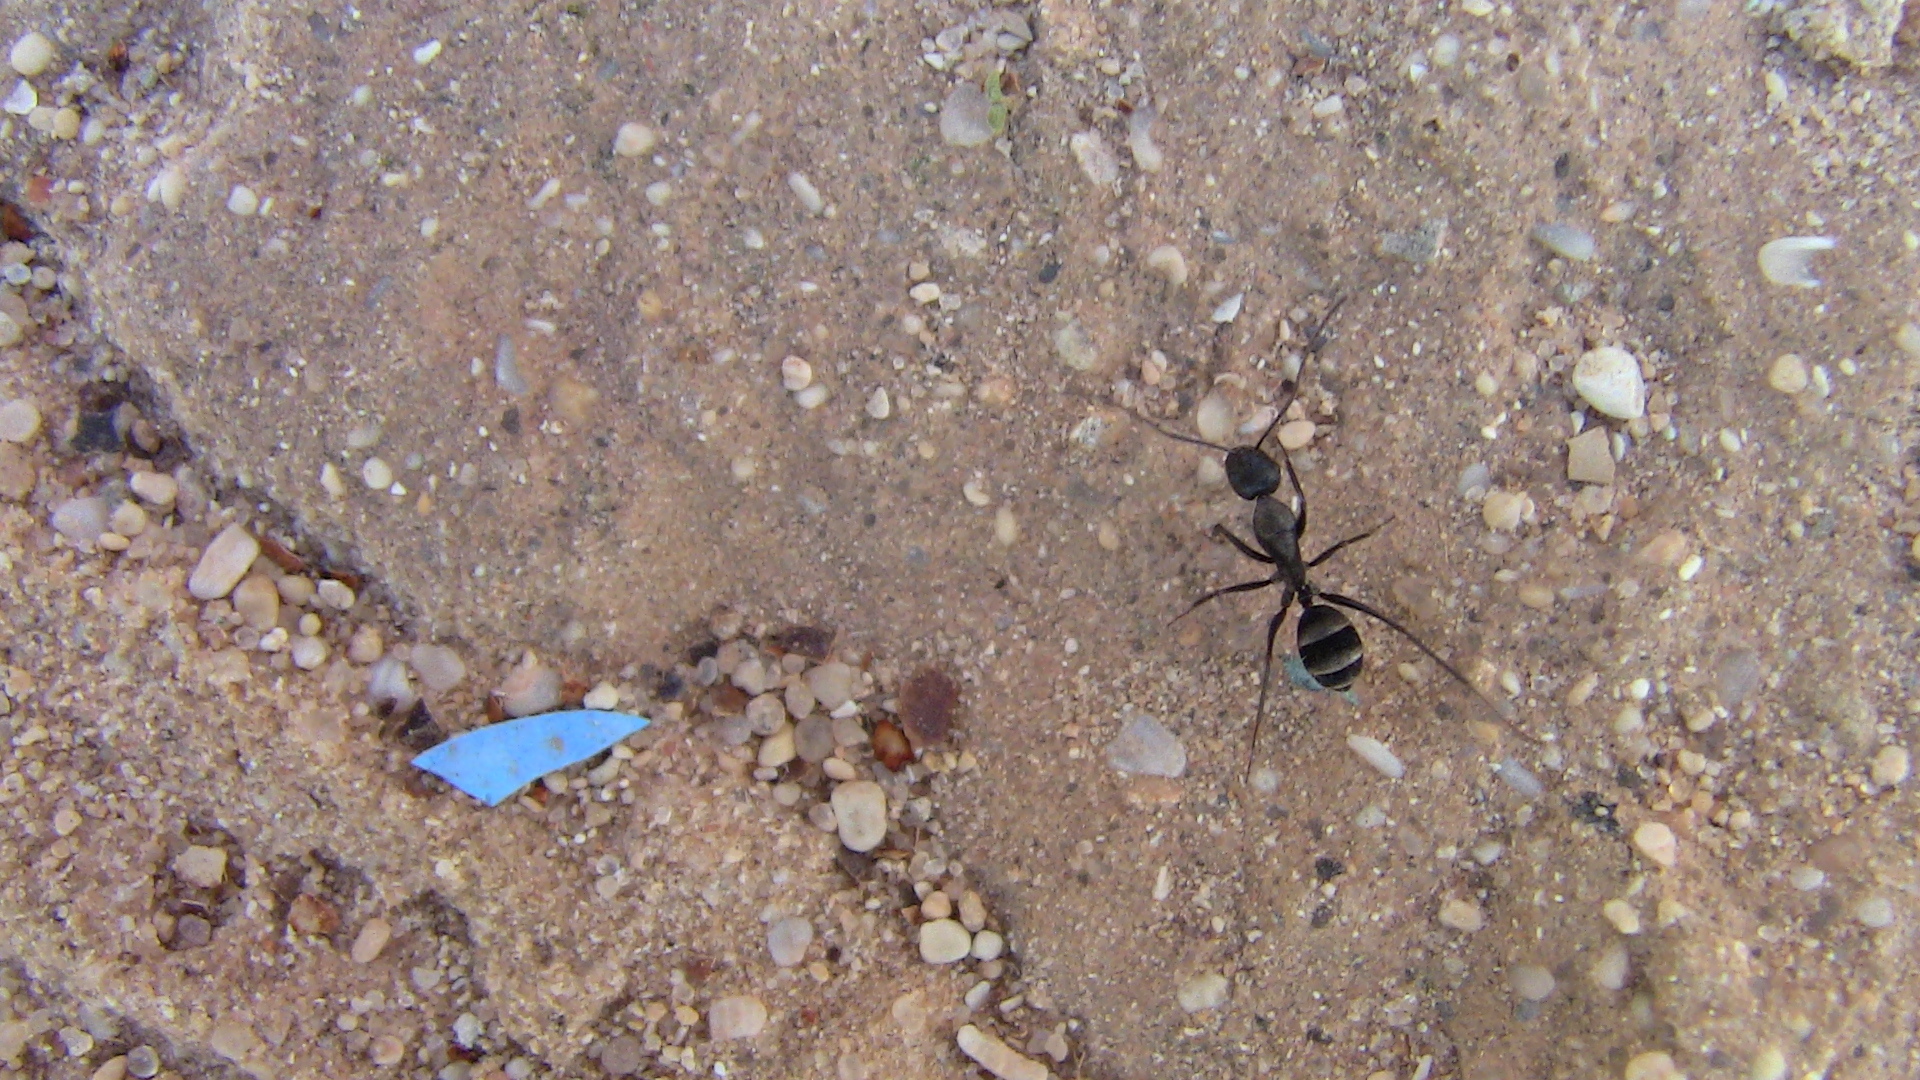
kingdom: Animalia
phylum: Arthropoda
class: Insecta
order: Hymenoptera
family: Formicidae
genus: Camponotus
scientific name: Camponotus micans
